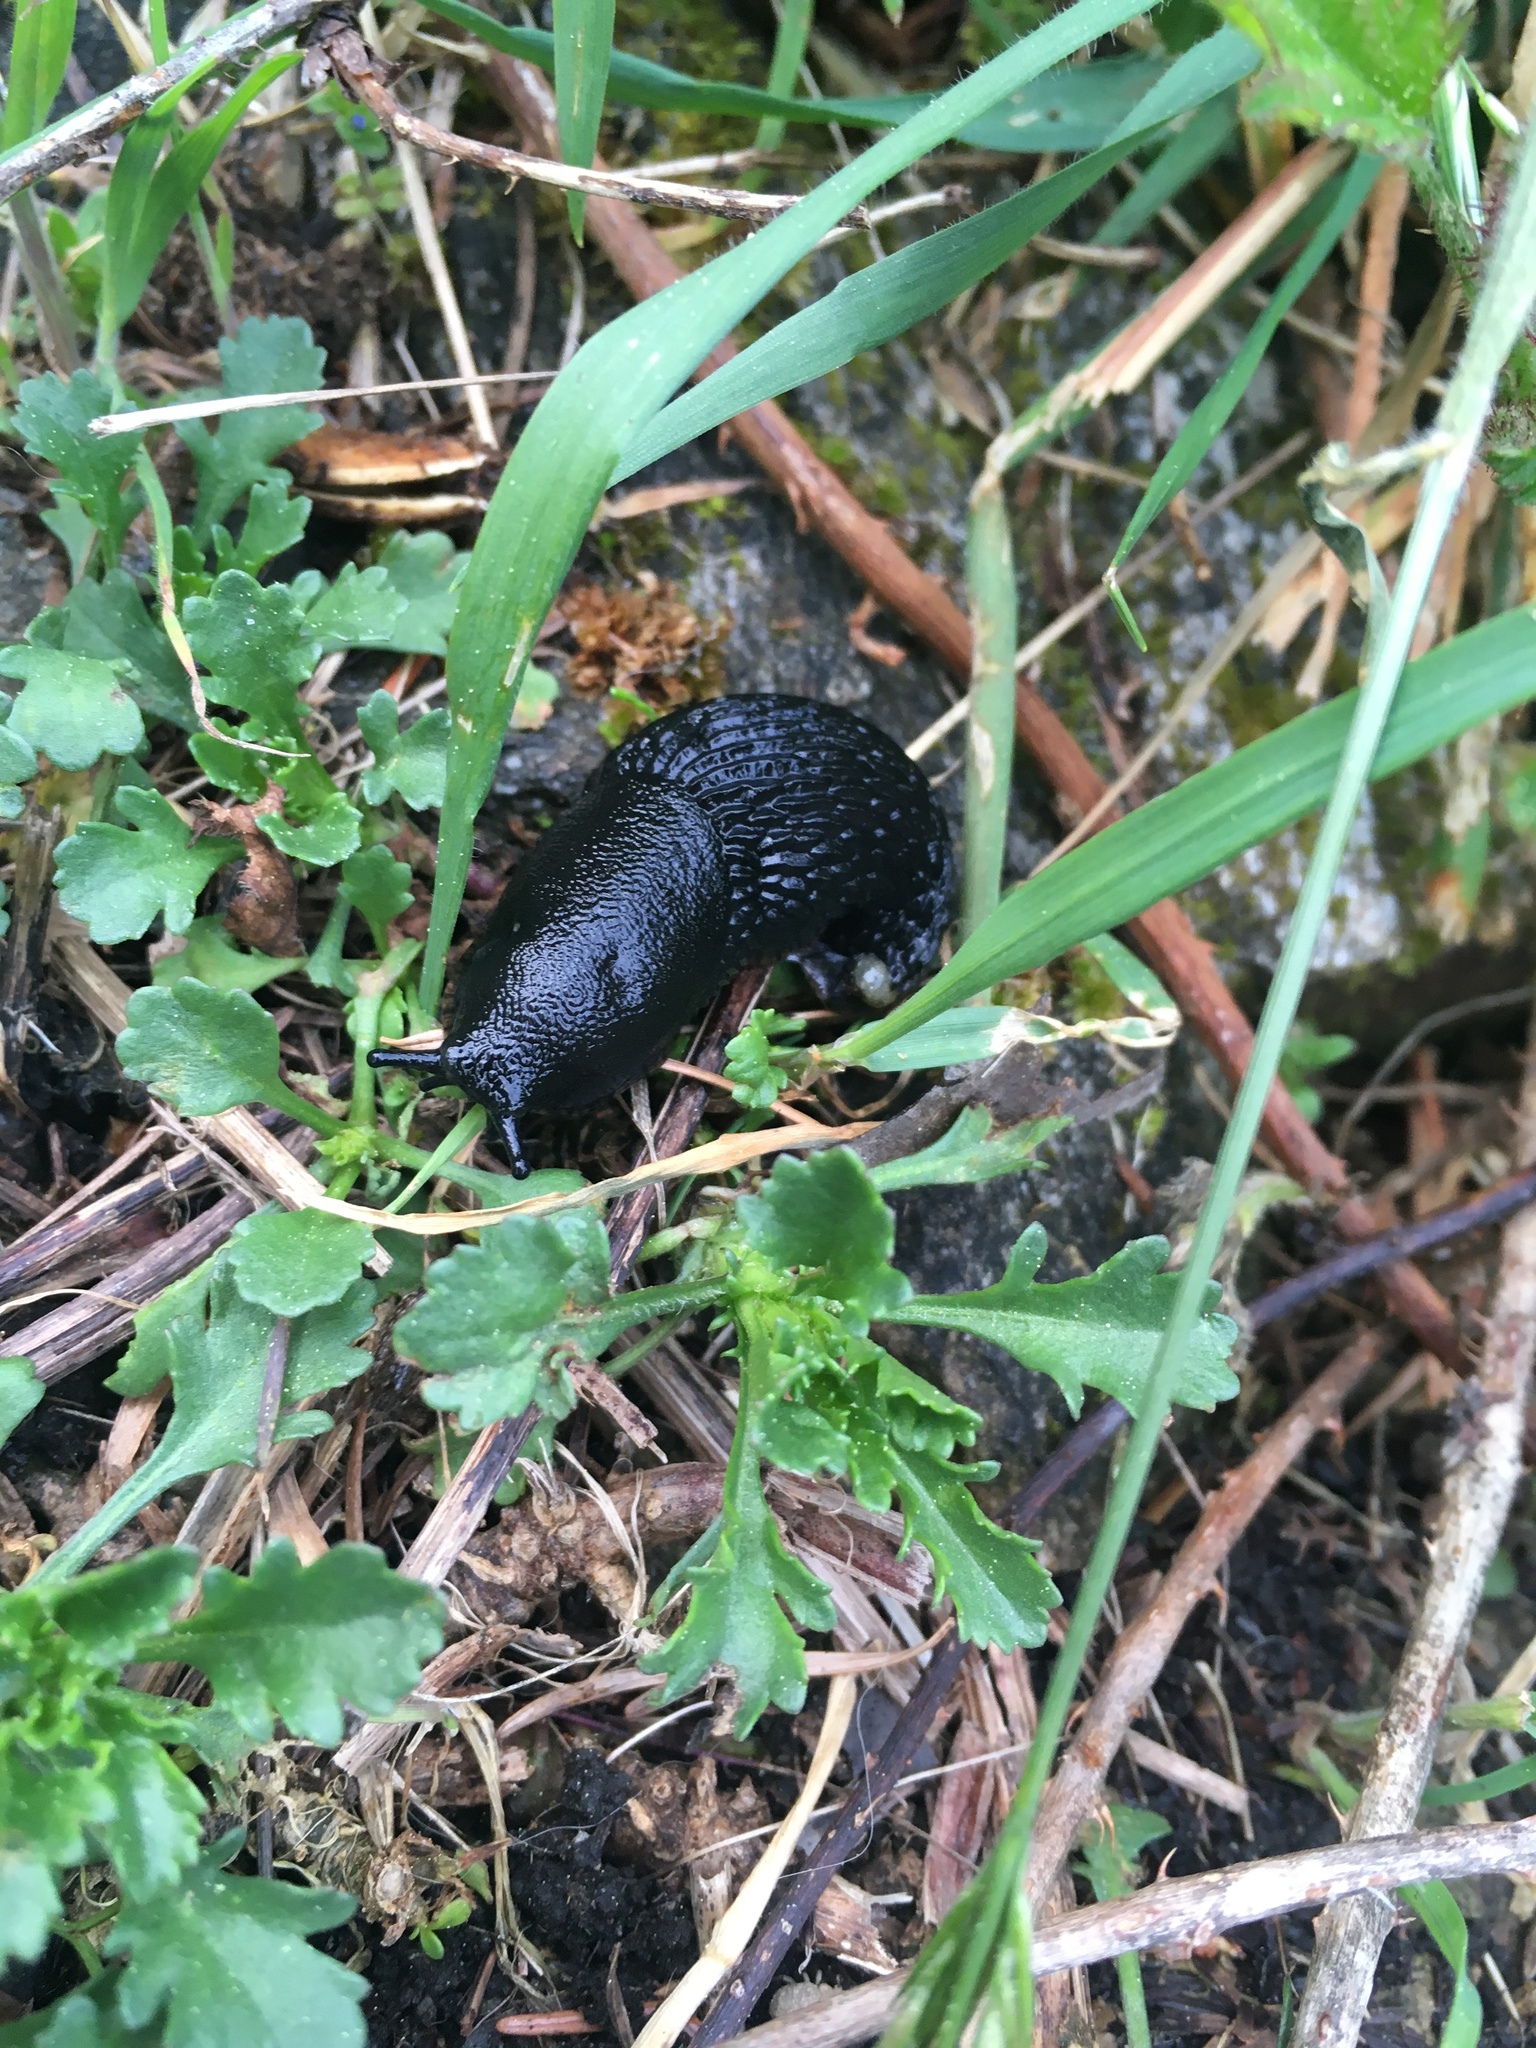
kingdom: Animalia
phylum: Mollusca
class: Gastropoda
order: Stylommatophora
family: Arionidae
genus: Arion
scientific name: Arion
